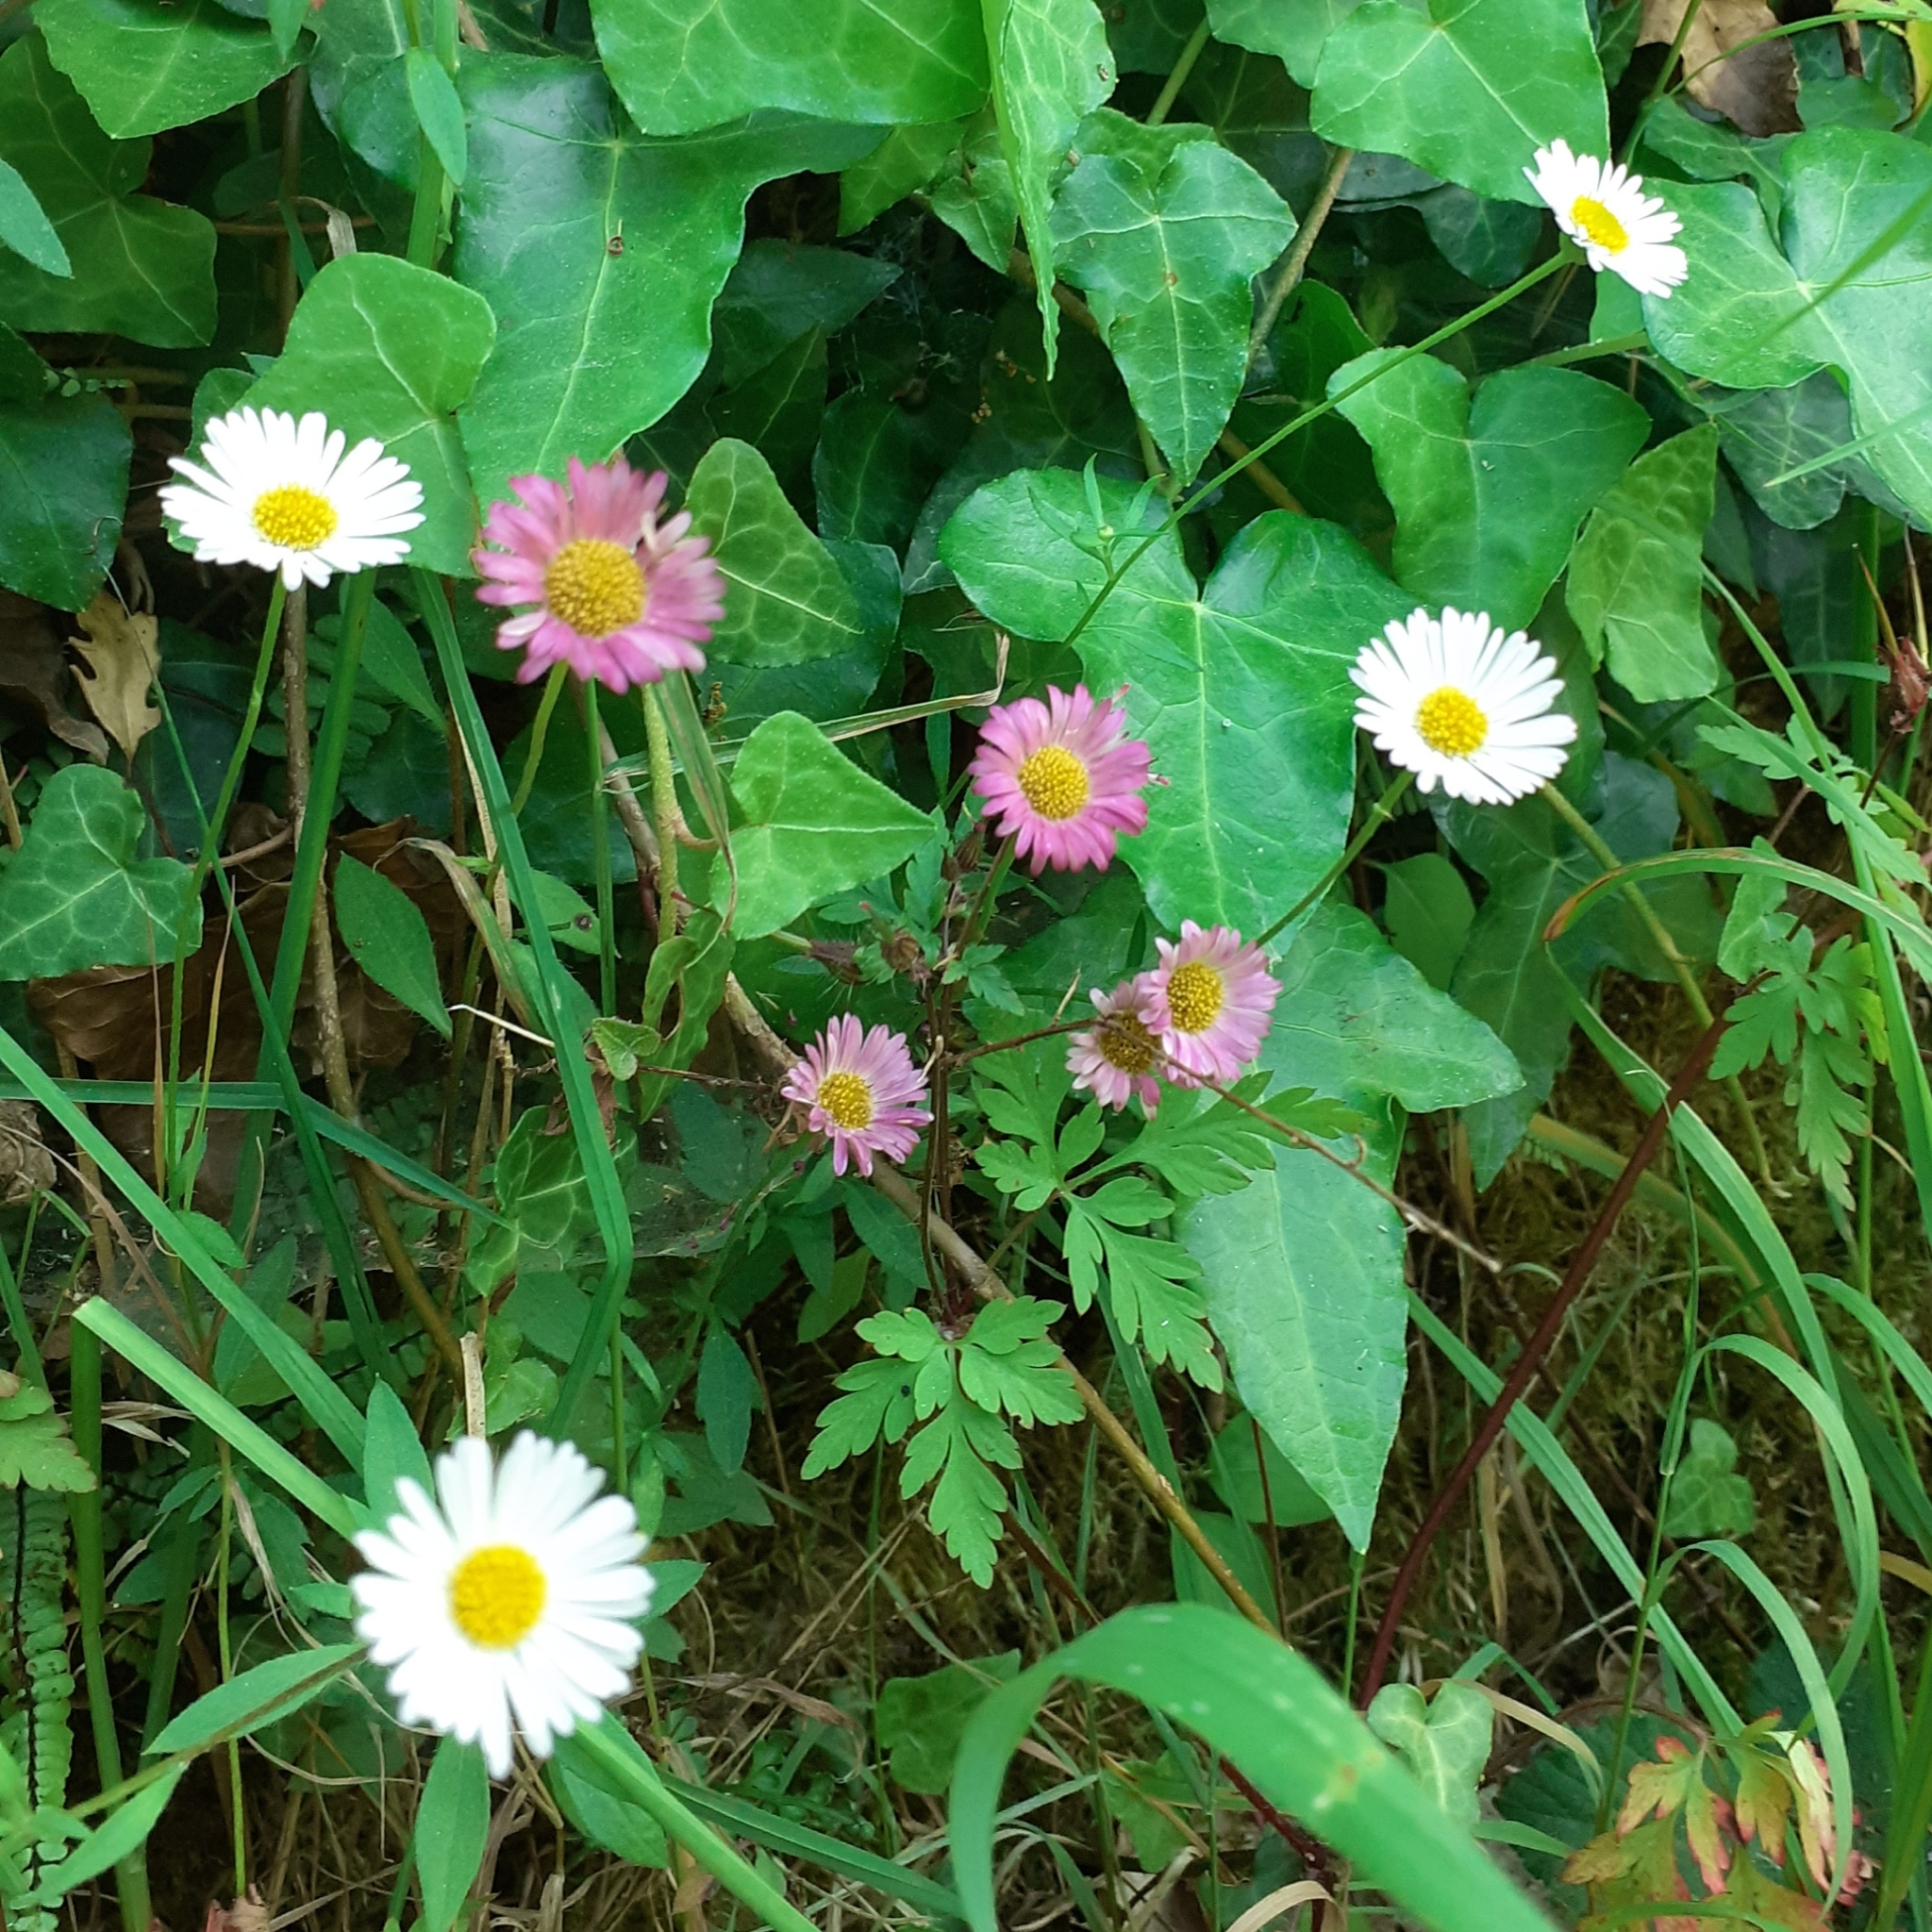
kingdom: Plantae
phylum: Tracheophyta
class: Magnoliopsida
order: Asterales
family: Asteraceae
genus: Erigeron
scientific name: Erigeron karvinskianus
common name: Mexican fleabane
